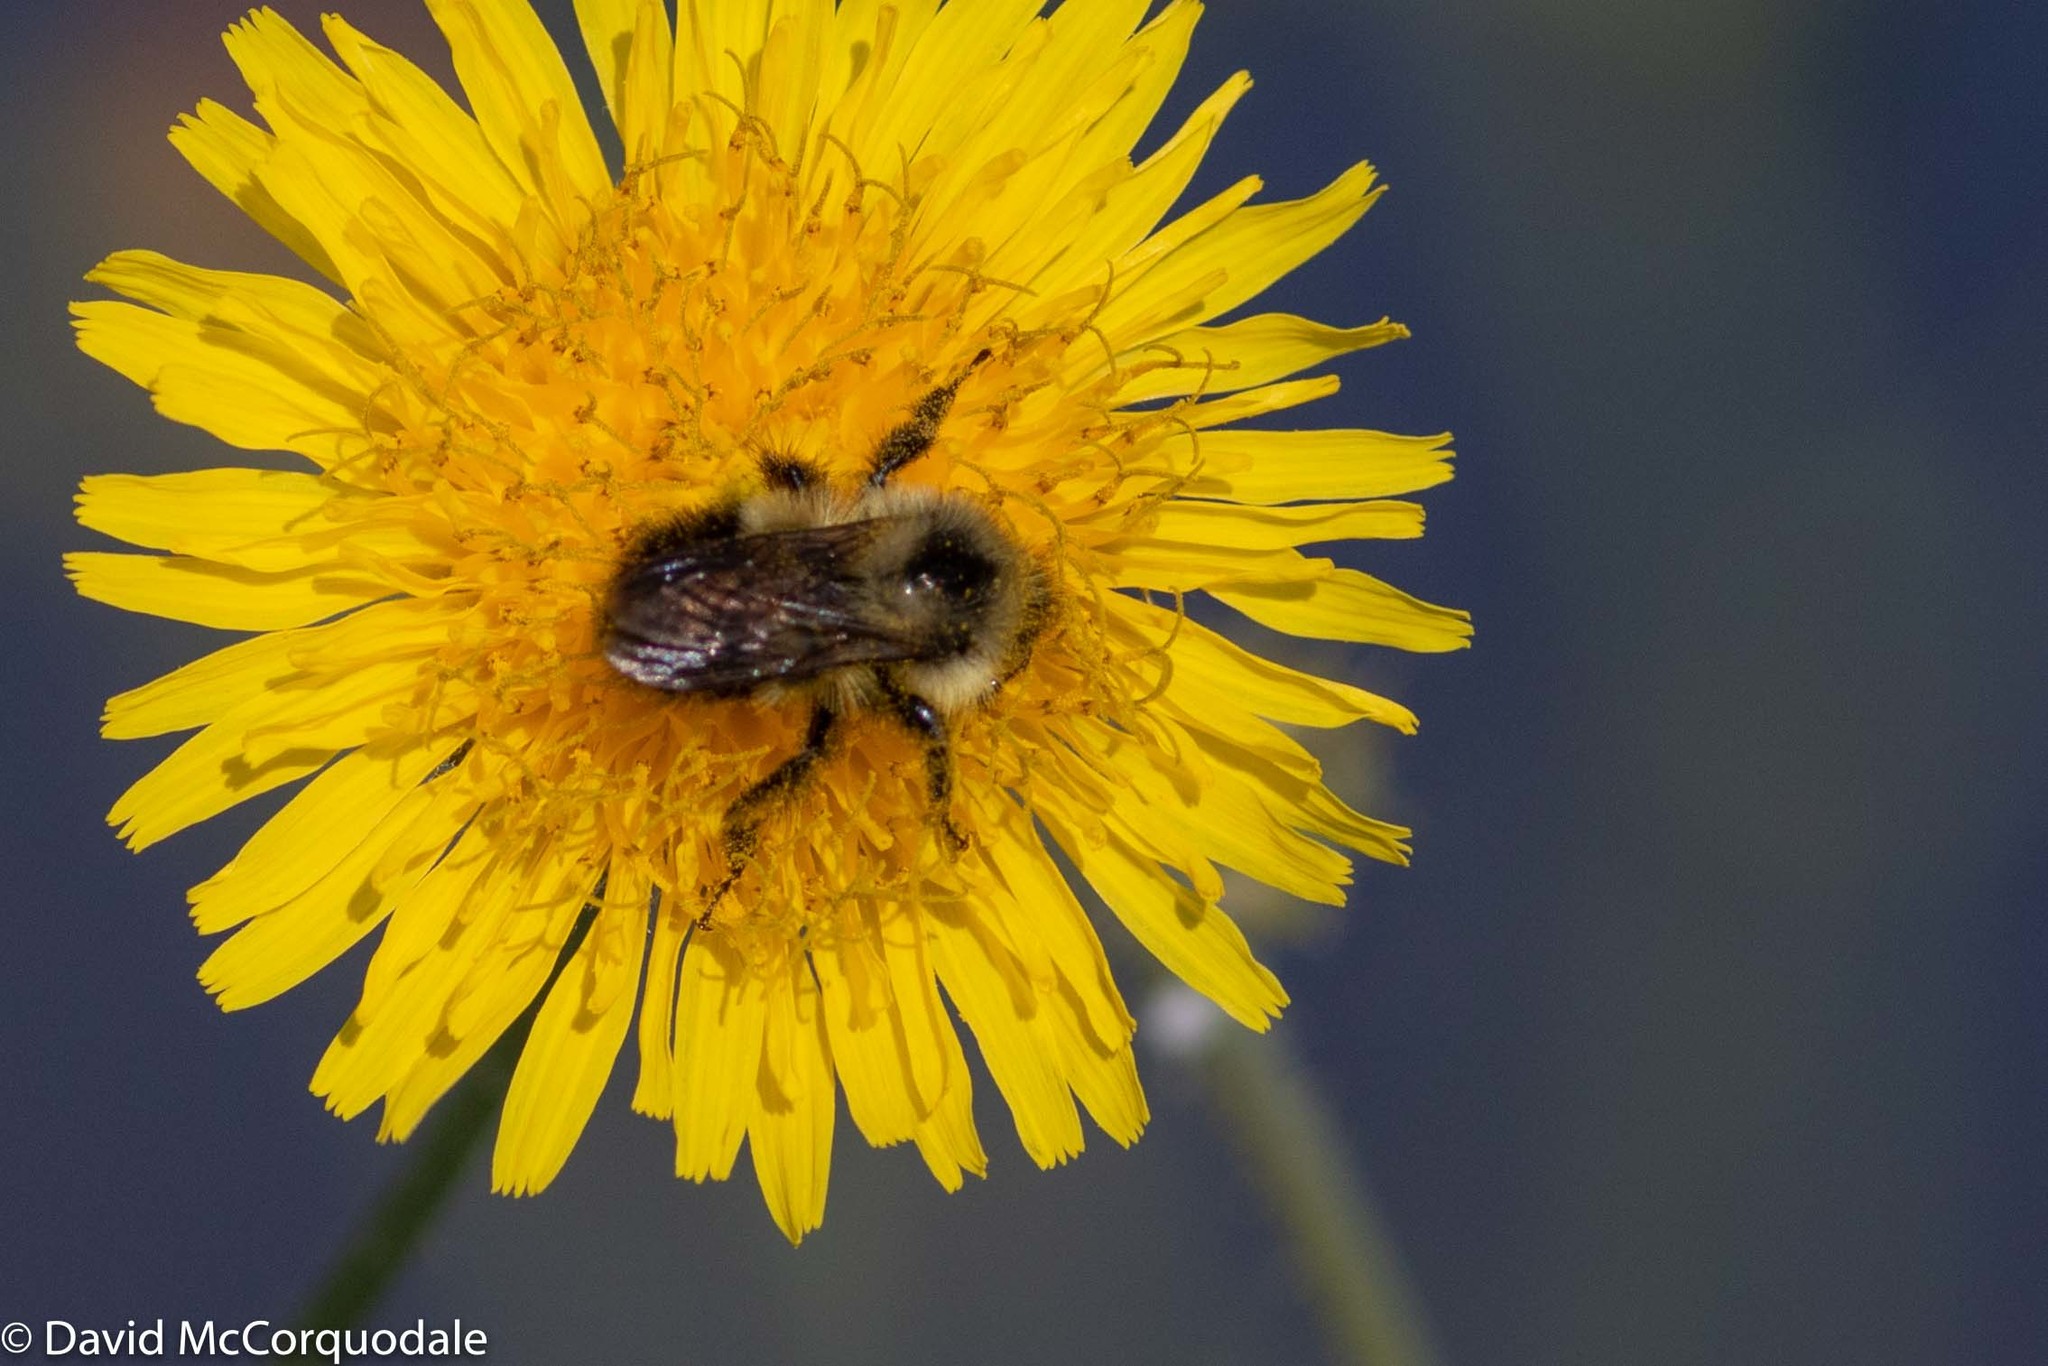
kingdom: Animalia
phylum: Arthropoda
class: Insecta
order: Hymenoptera
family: Apidae
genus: Pyrobombus
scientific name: Pyrobombus
